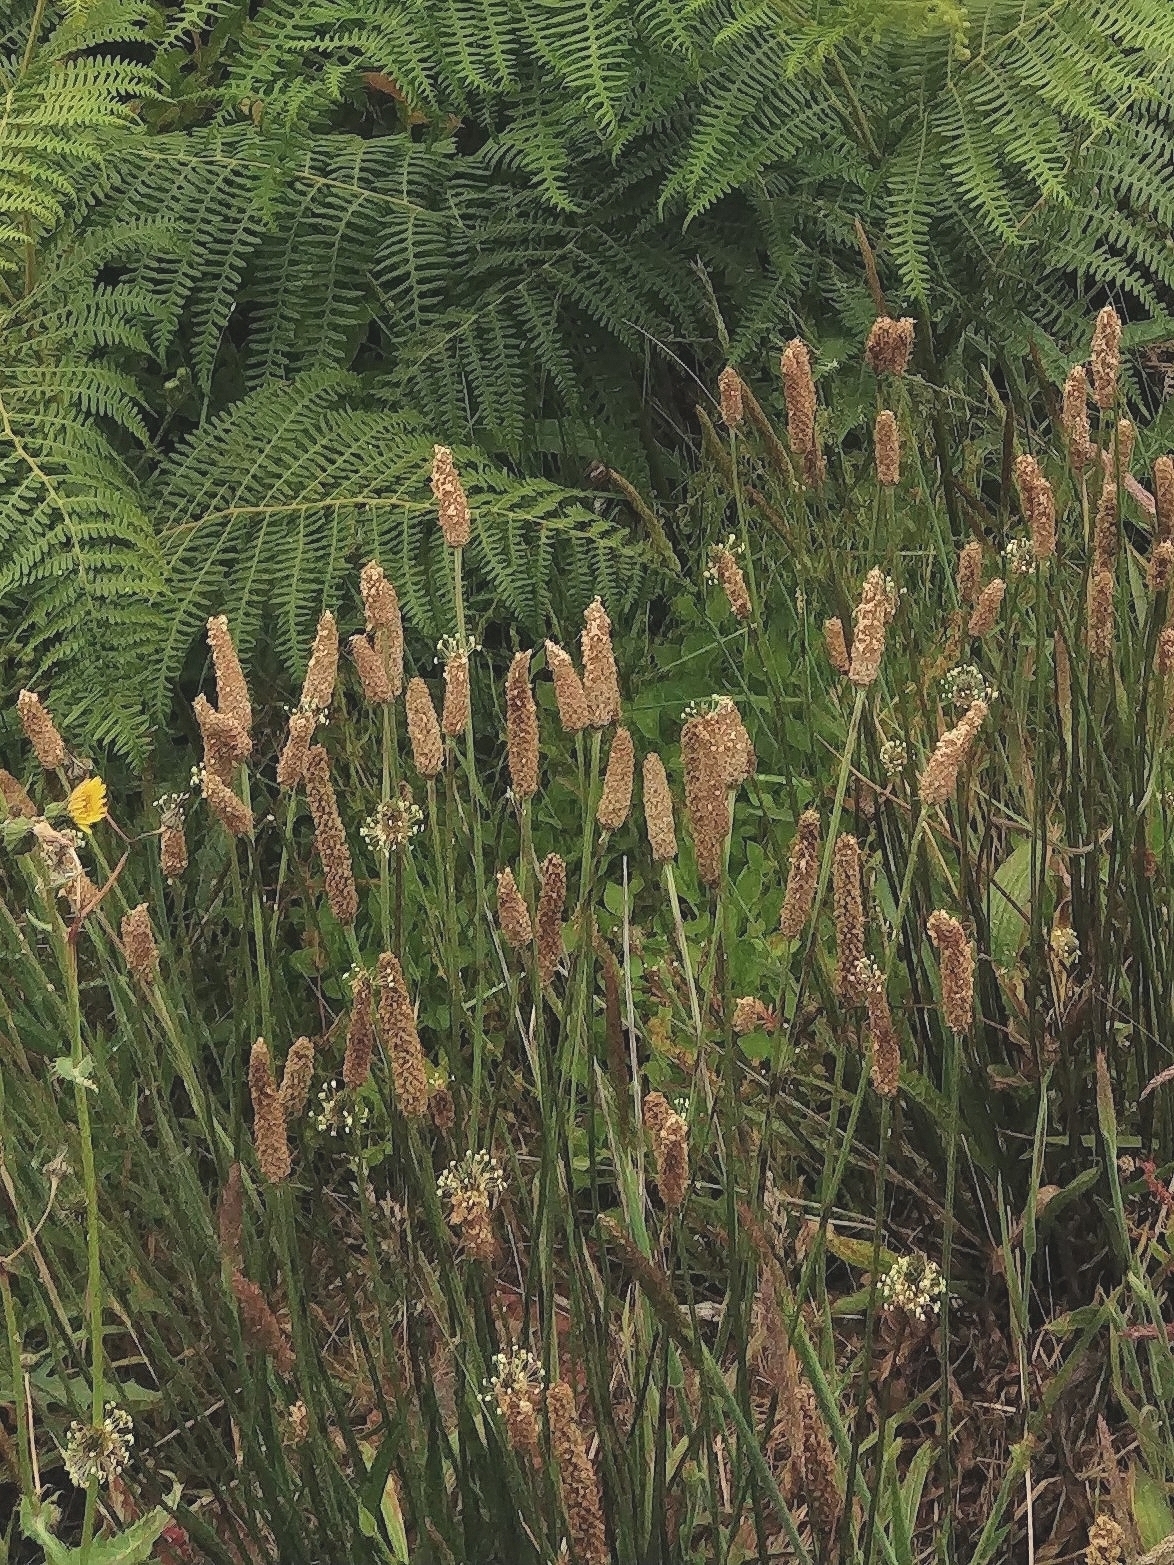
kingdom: Plantae
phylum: Tracheophyta
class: Magnoliopsida
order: Lamiales
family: Plantaginaceae
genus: Plantago
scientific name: Plantago lanceolata
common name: Ribwort plantain
